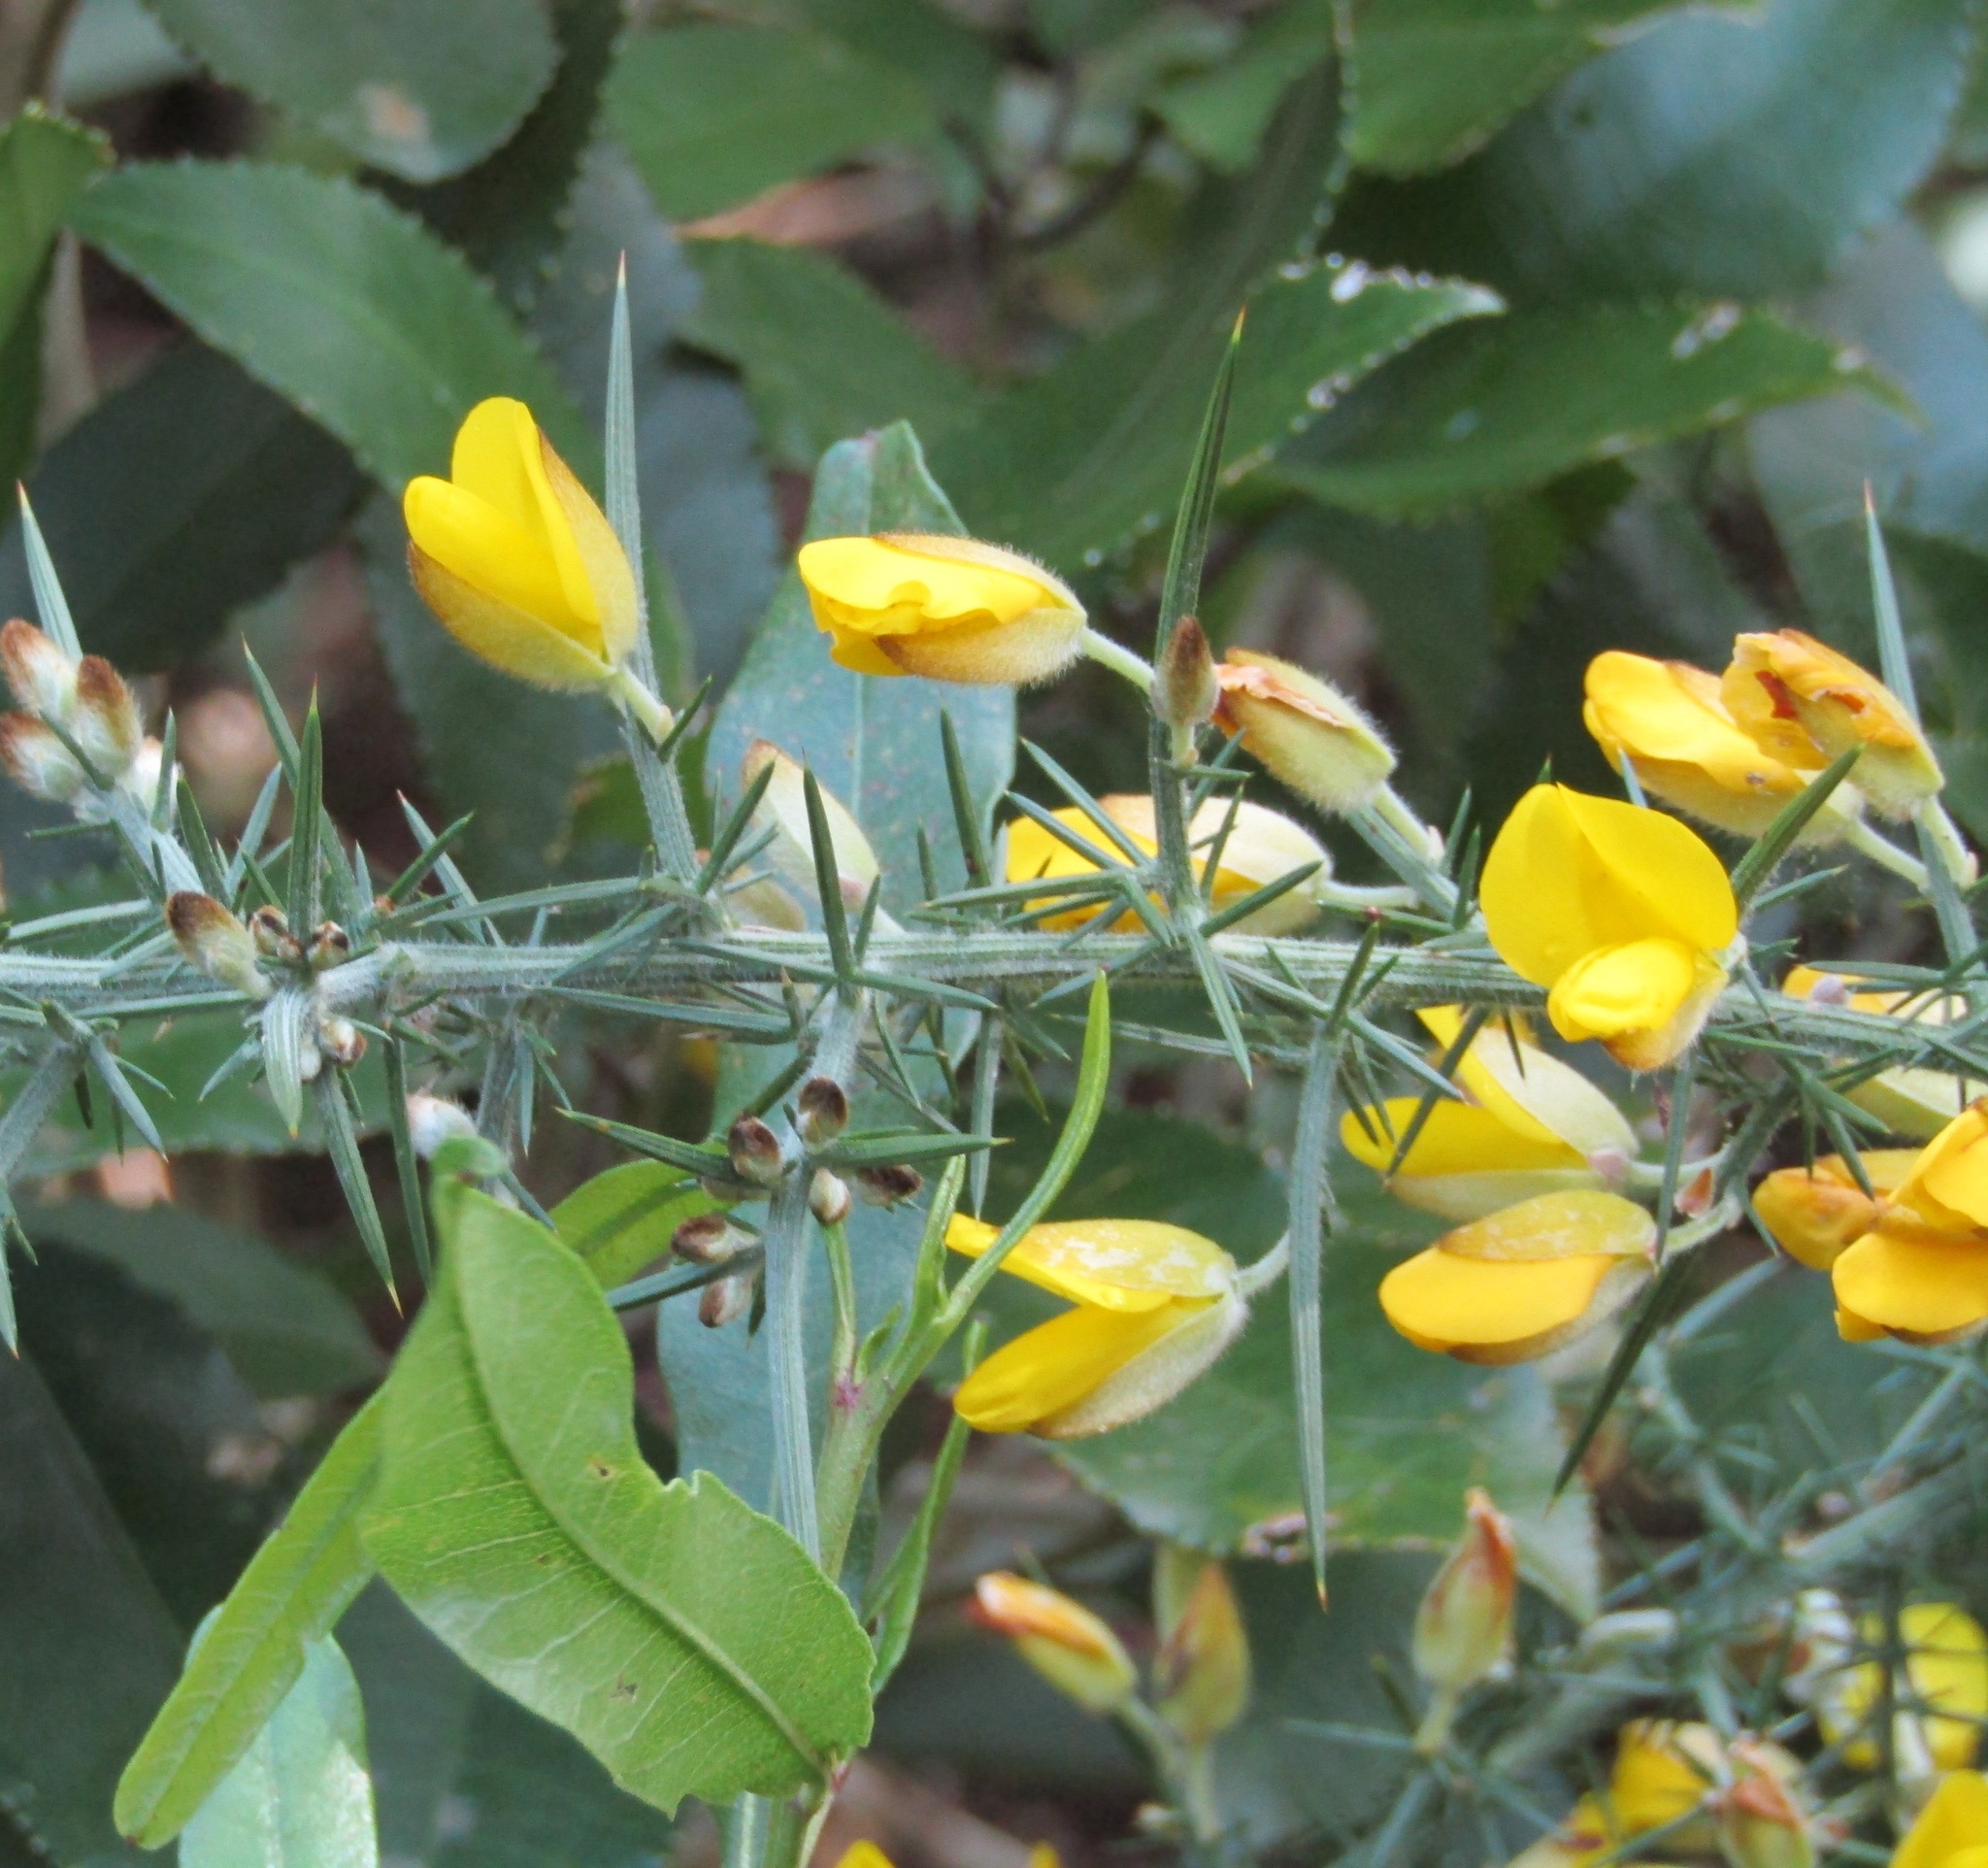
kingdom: Plantae
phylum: Tracheophyta
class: Magnoliopsida
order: Fabales
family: Fabaceae
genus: Ulex
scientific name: Ulex europaeus
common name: Common gorse
